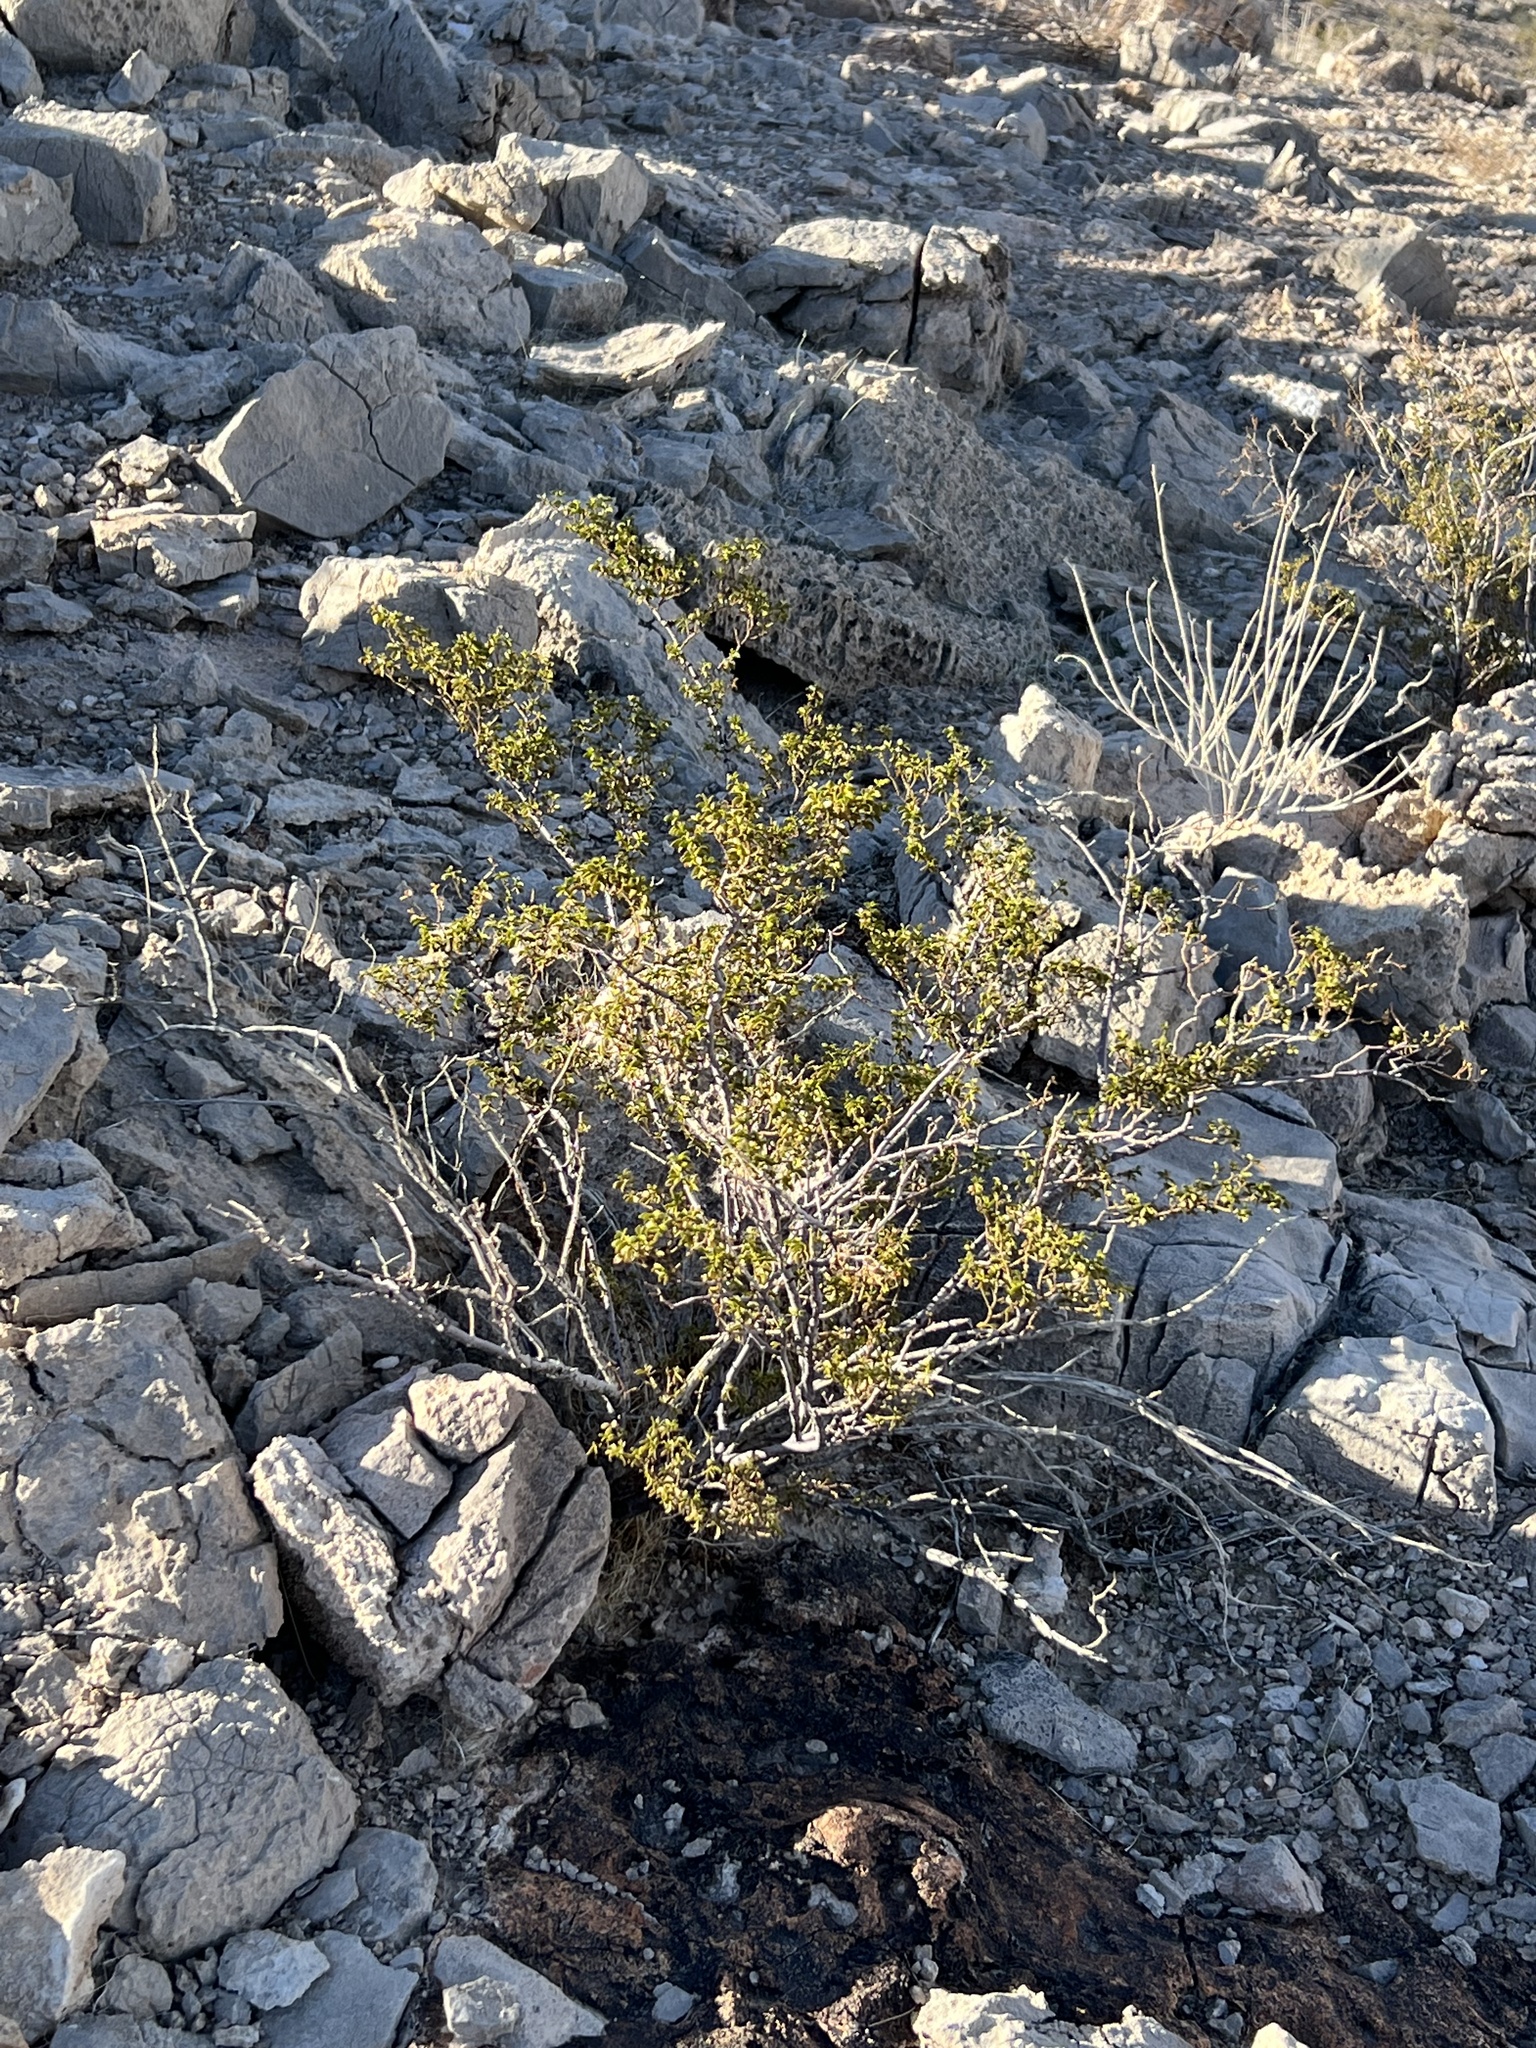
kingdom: Plantae
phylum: Tracheophyta
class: Magnoliopsida
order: Zygophyllales
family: Zygophyllaceae
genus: Larrea
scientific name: Larrea tridentata
